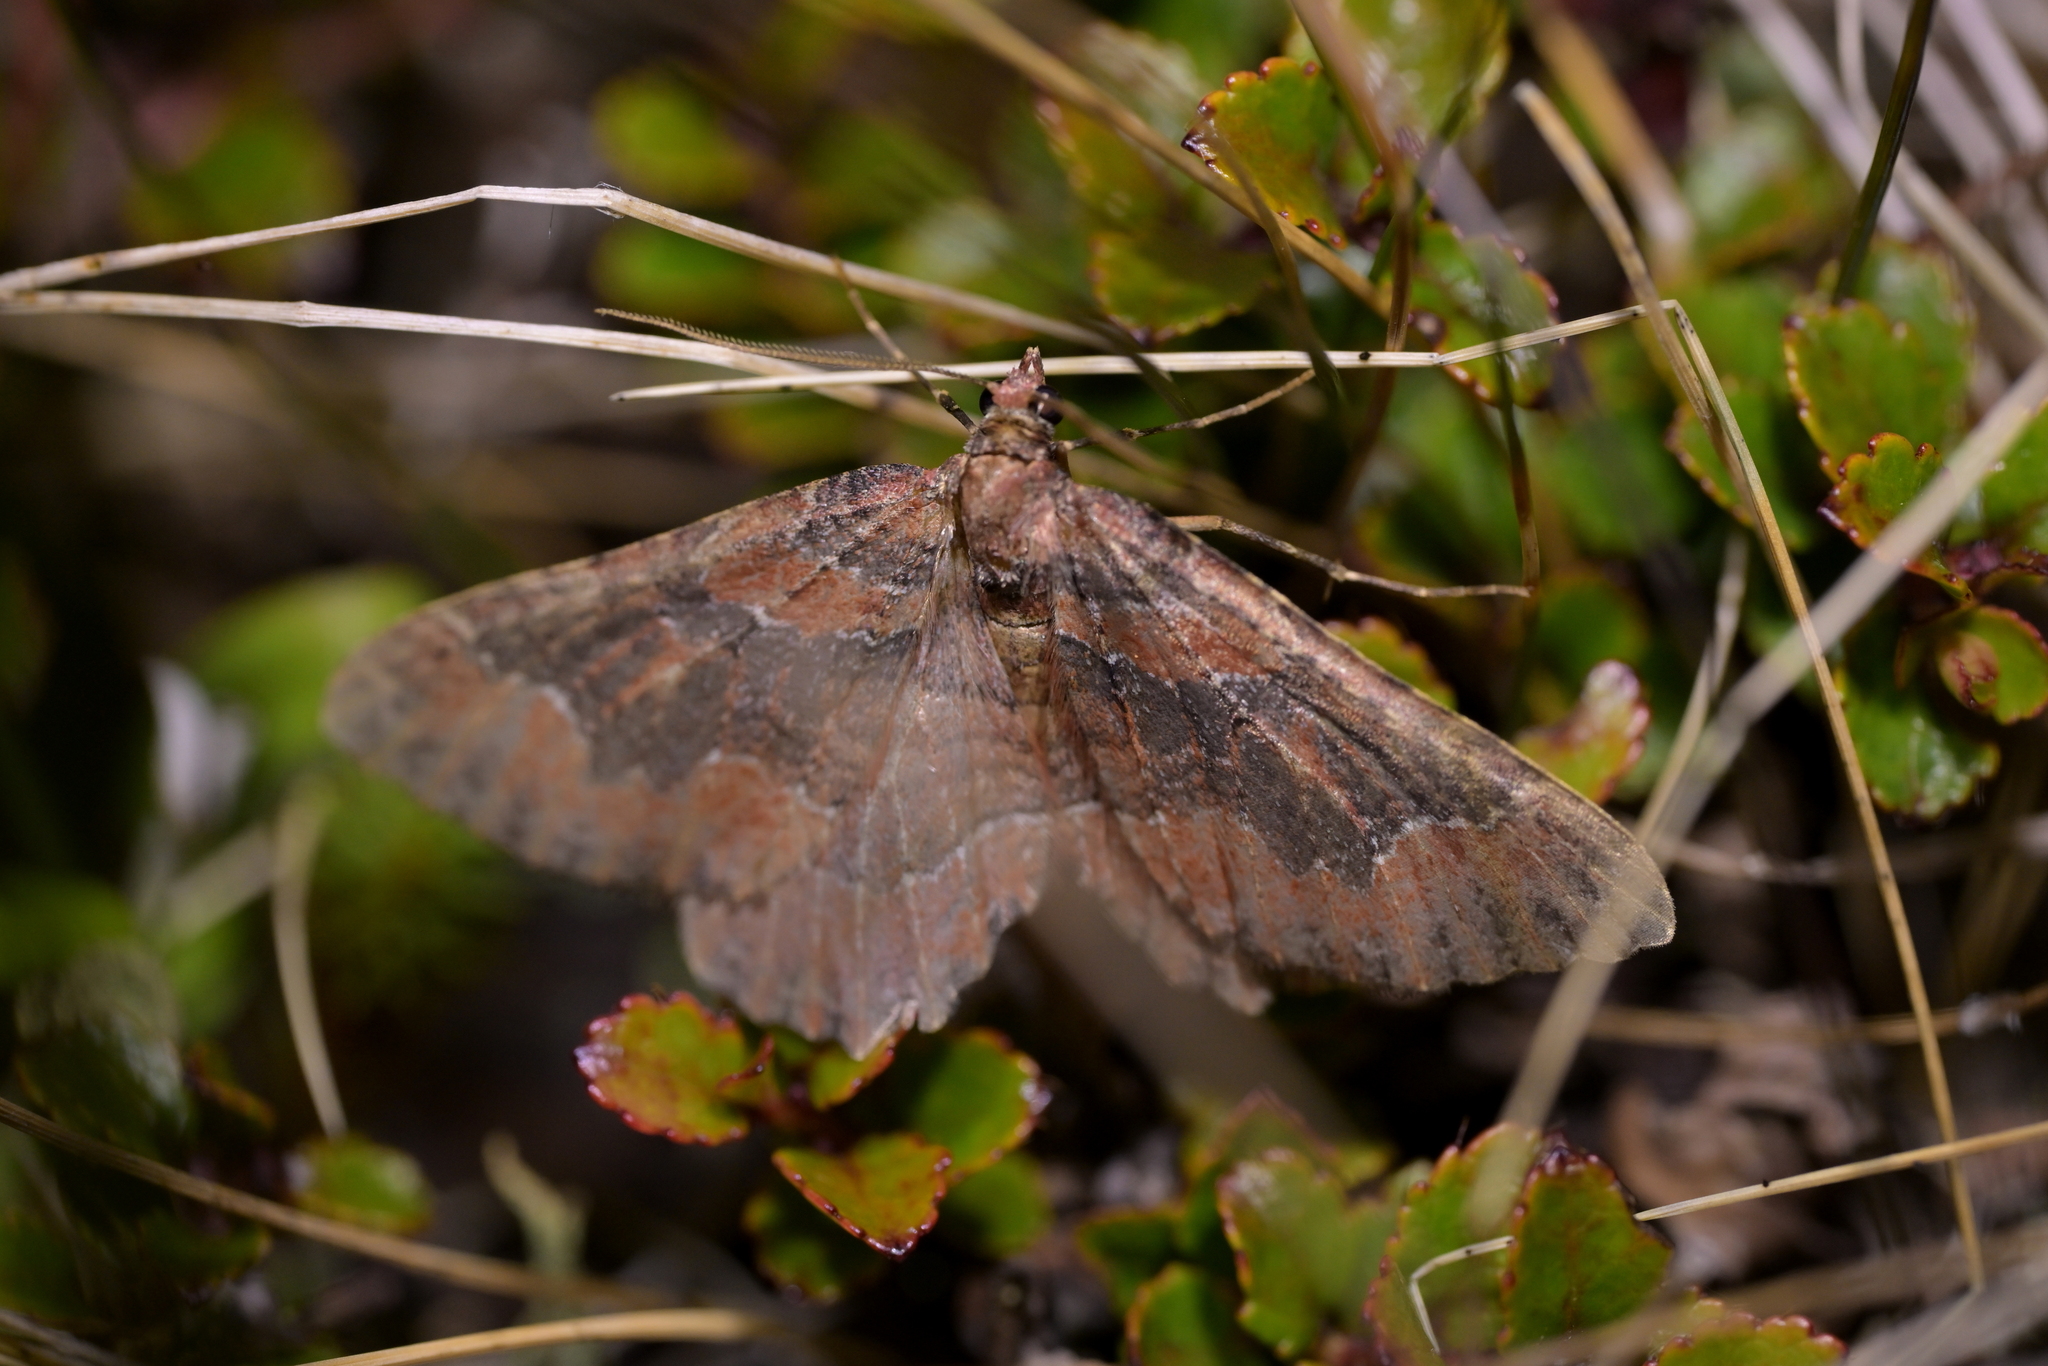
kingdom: Animalia
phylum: Arthropoda
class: Insecta
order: Lepidoptera
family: Geometridae
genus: Hydriomena
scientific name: Hydriomena hemizona
